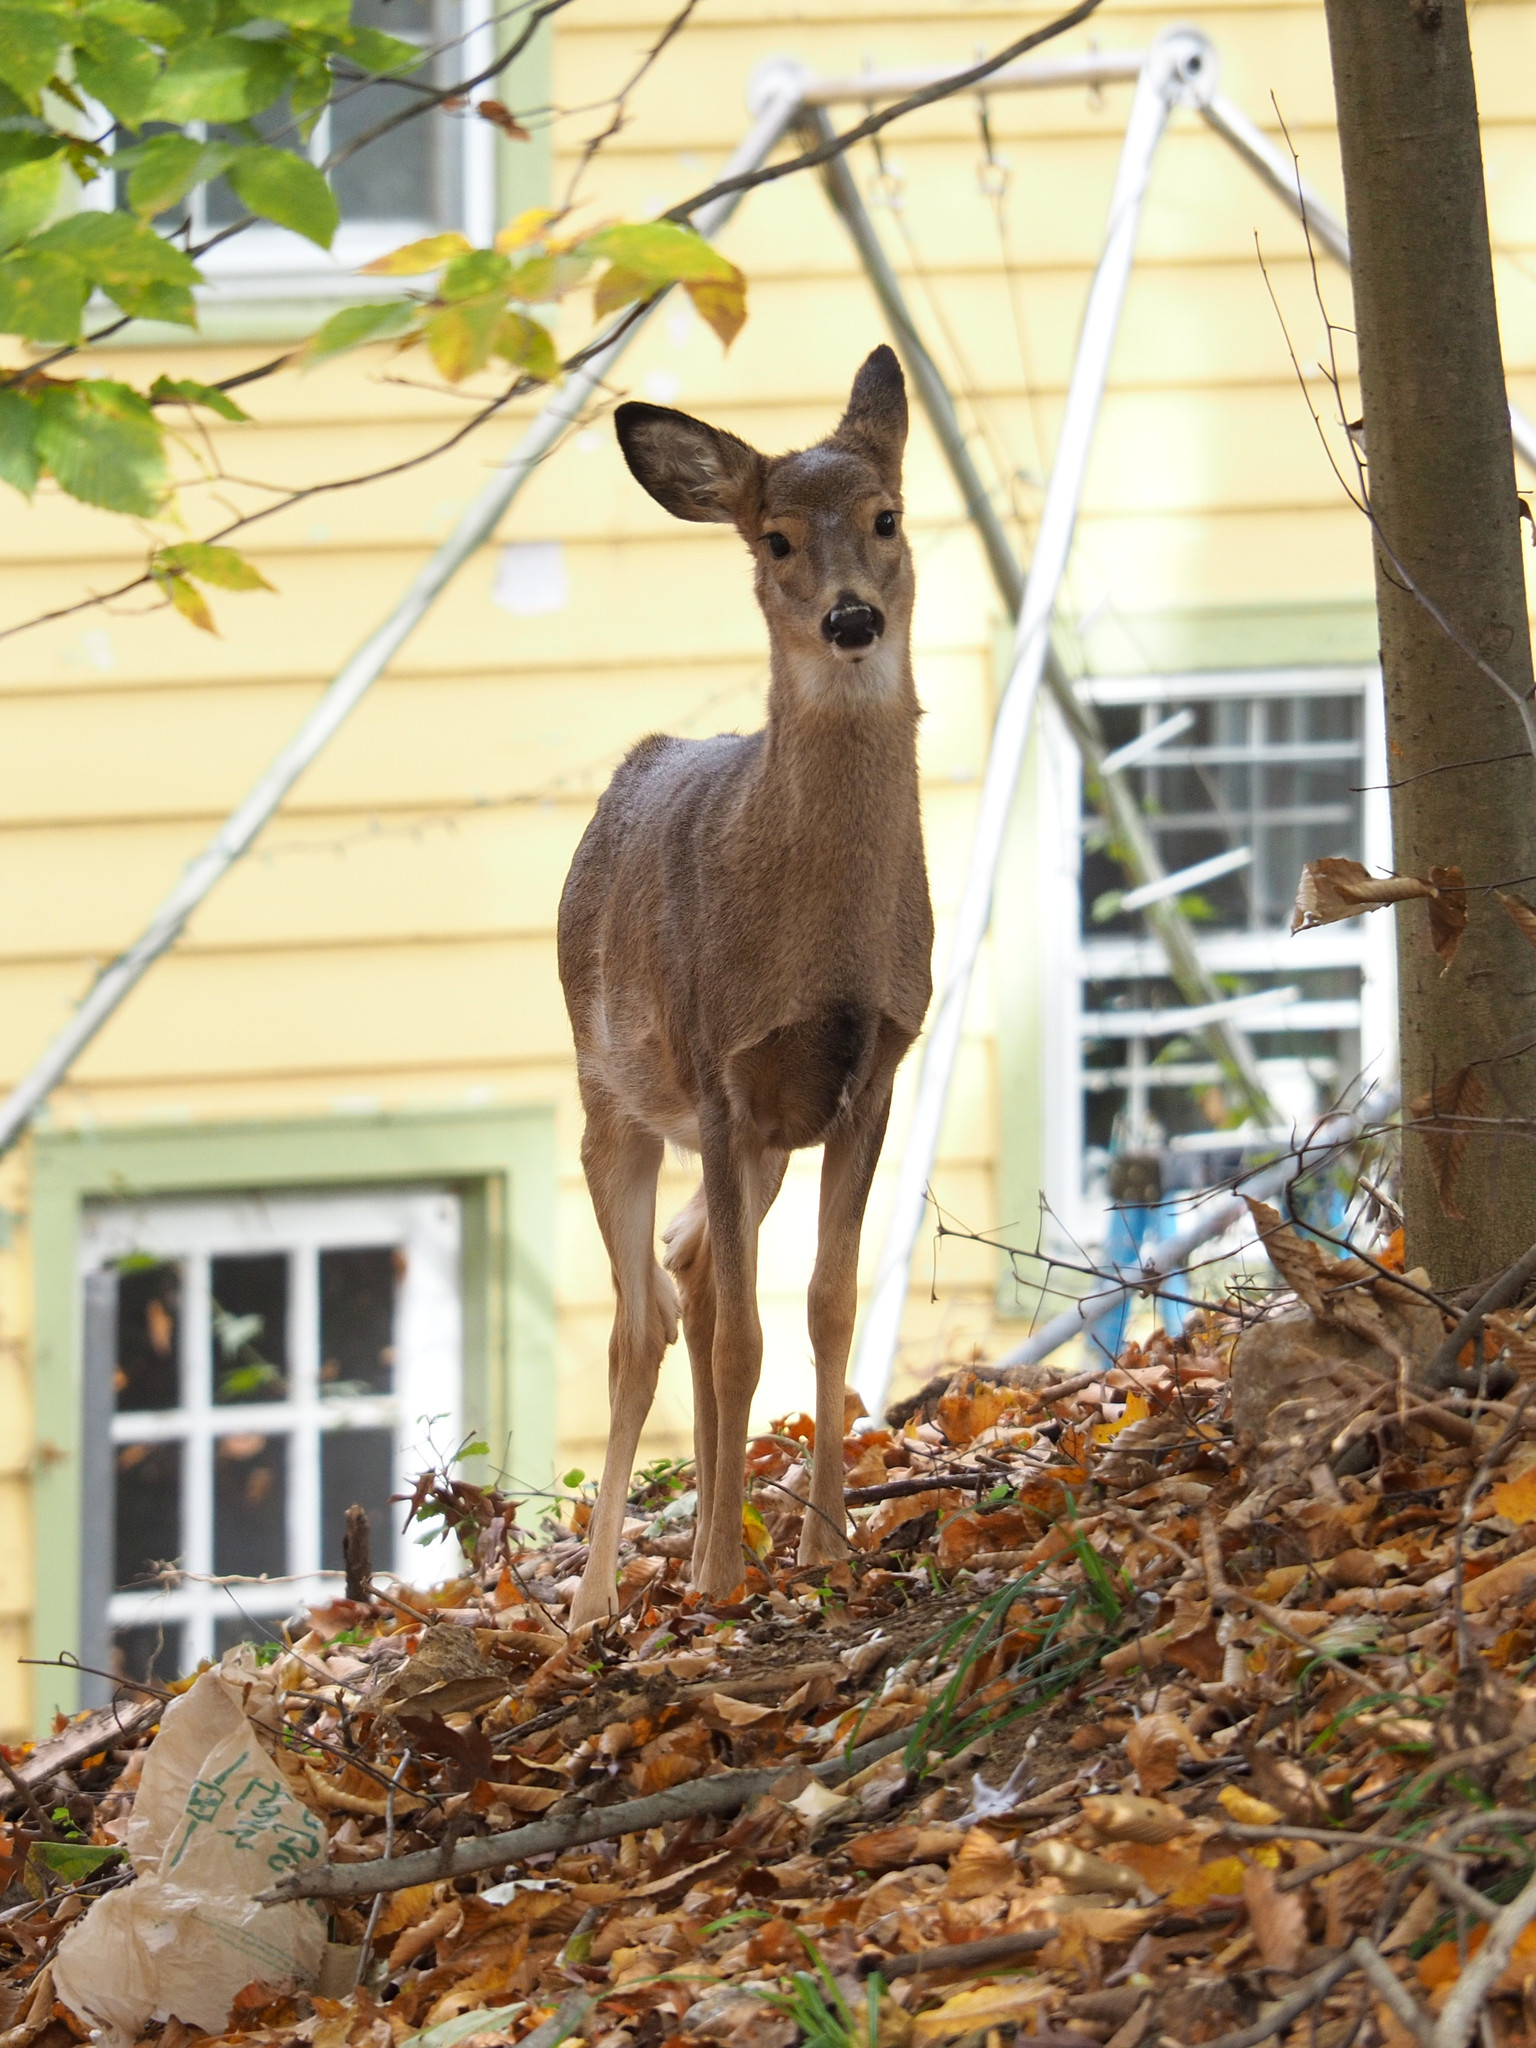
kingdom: Animalia
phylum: Chordata
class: Mammalia
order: Artiodactyla
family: Cervidae
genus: Odocoileus
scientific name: Odocoileus virginianus
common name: White-tailed deer
